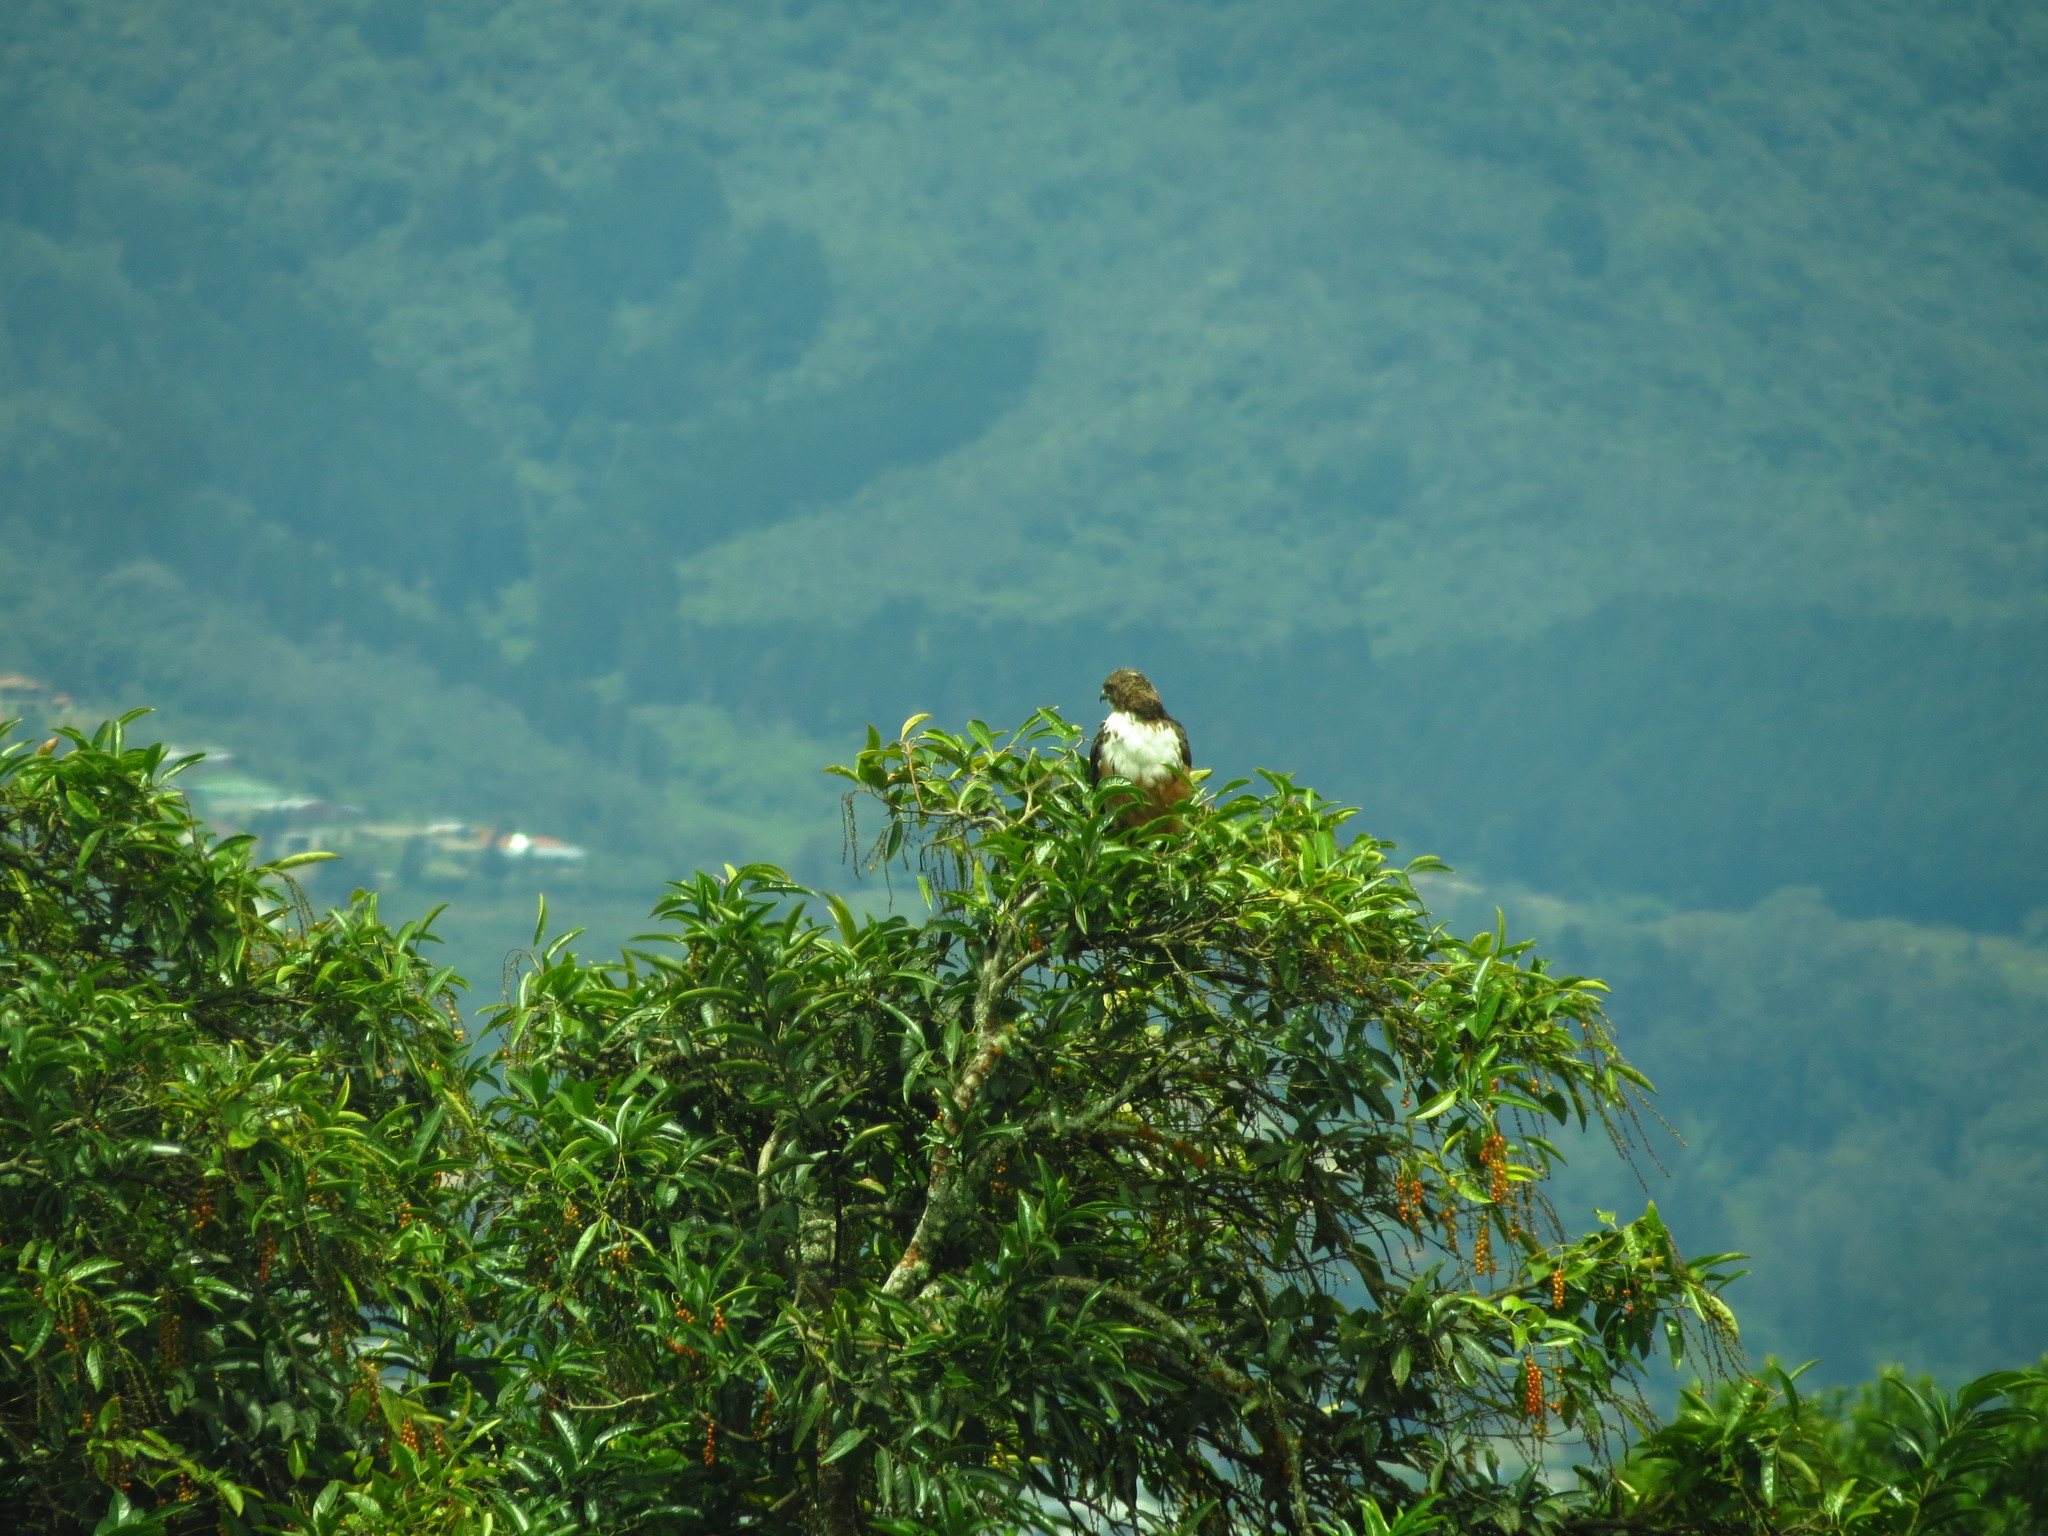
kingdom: Animalia
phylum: Chordata
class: Aves
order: Accipitriformes
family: Accipitridae
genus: Buteo
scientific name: Buteo jamaicensis
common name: Red-tailed hawk
